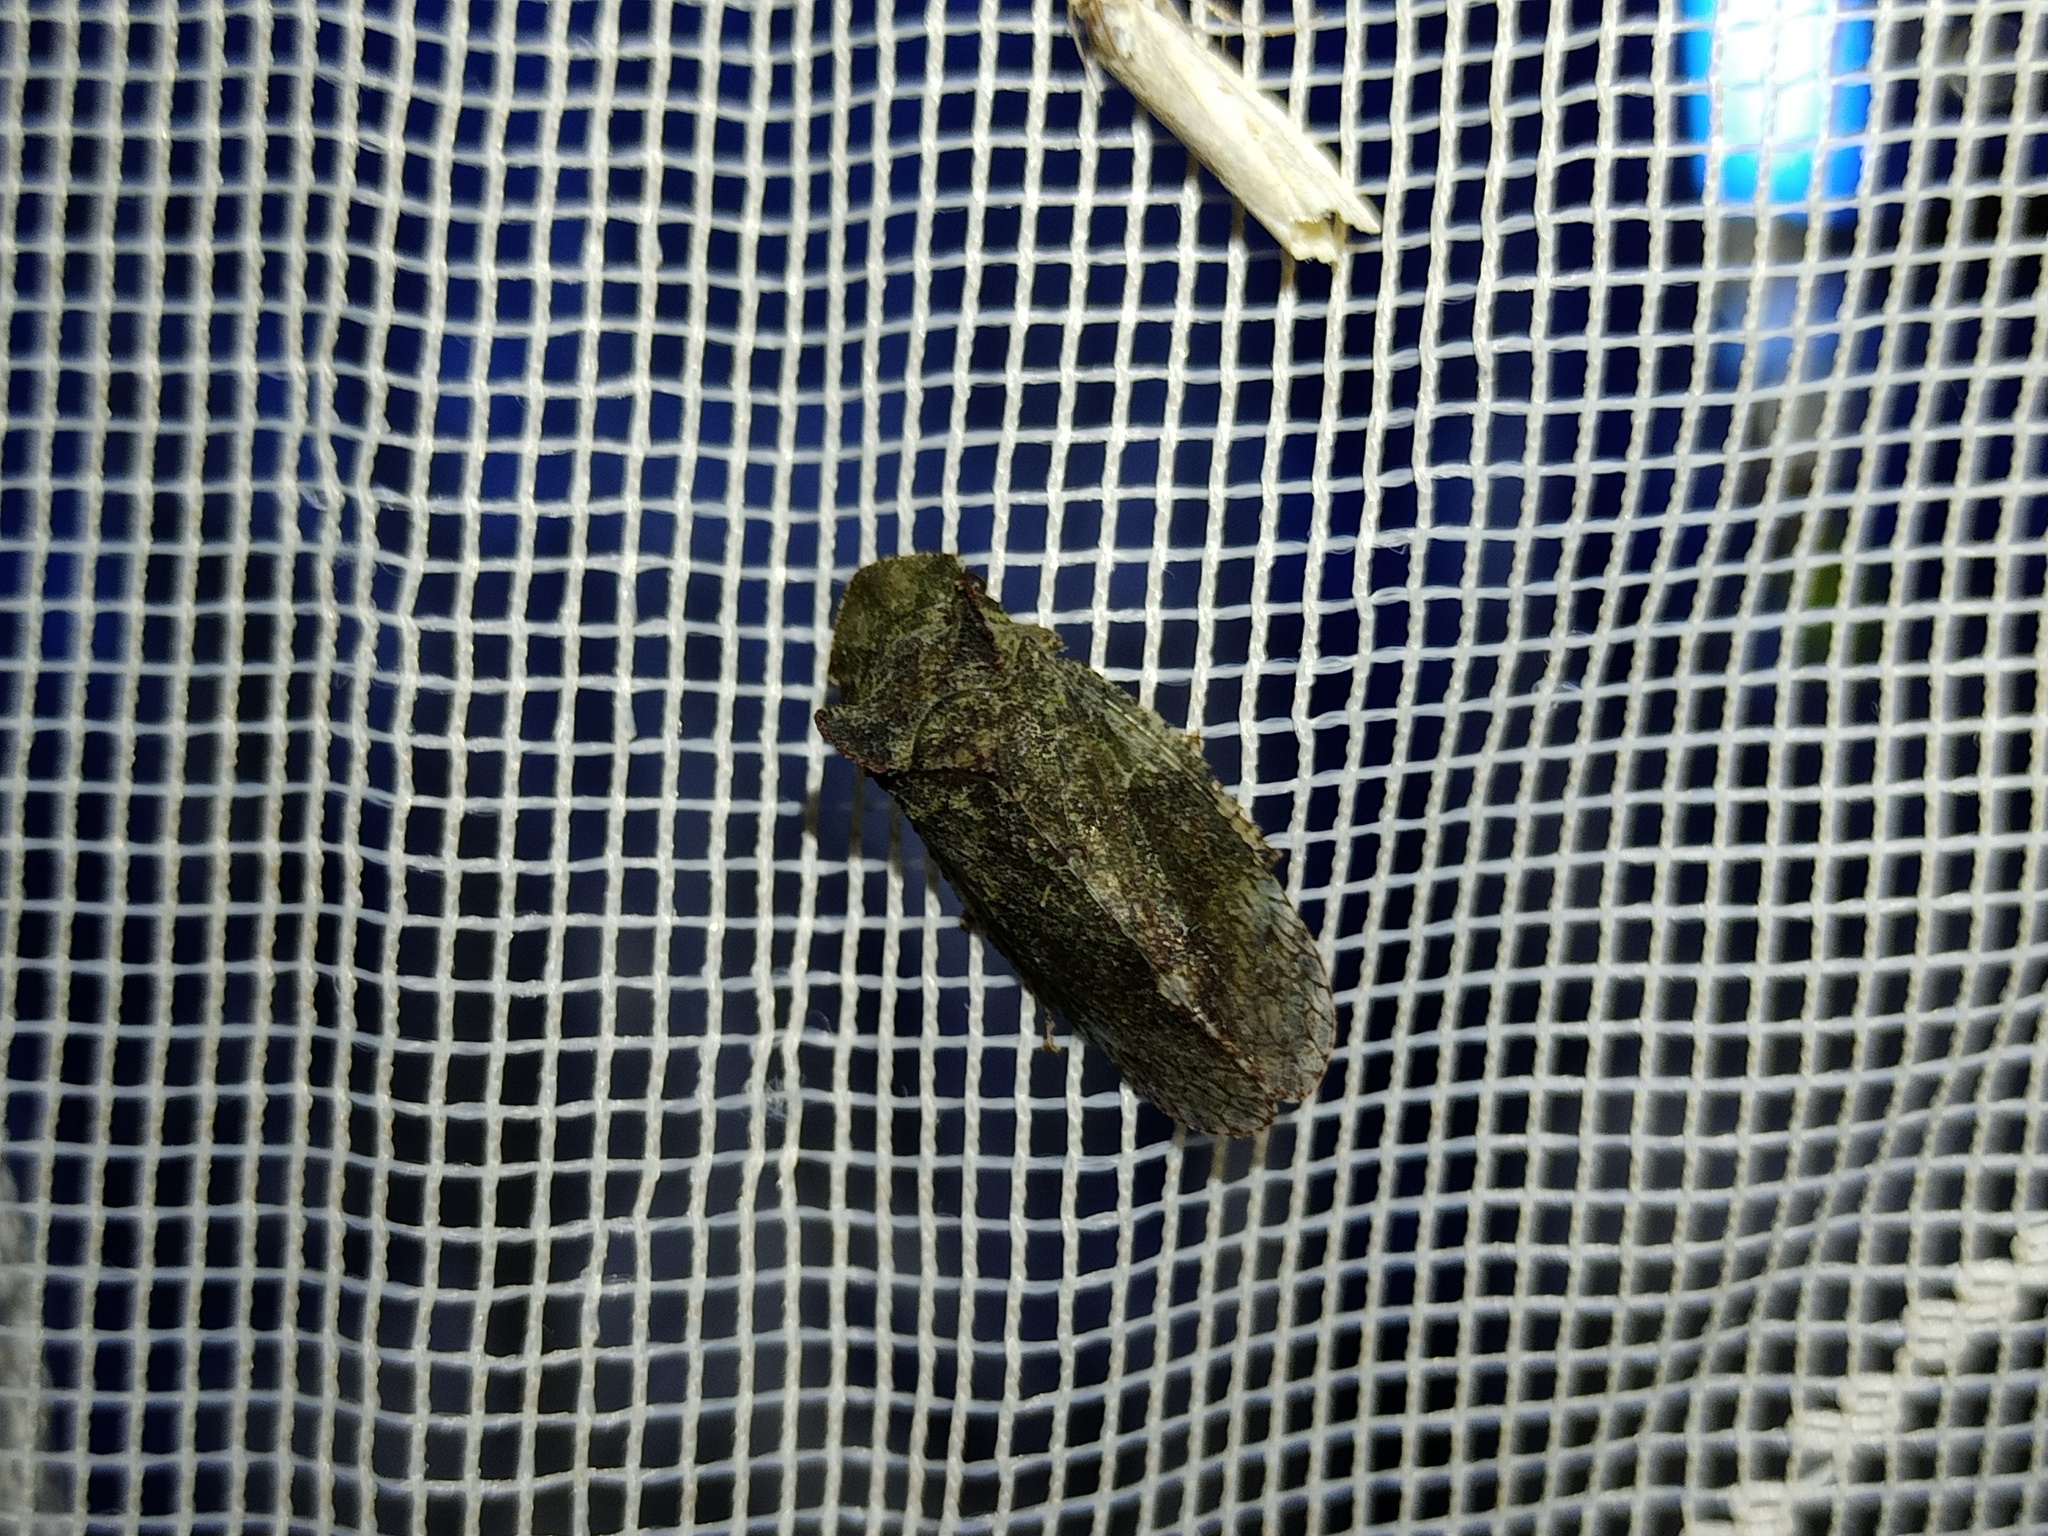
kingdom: Animalia
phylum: Arthropoda
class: Insecta
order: Hemiptera
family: Cicadellidae
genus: Ledra
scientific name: Ledra aurita
